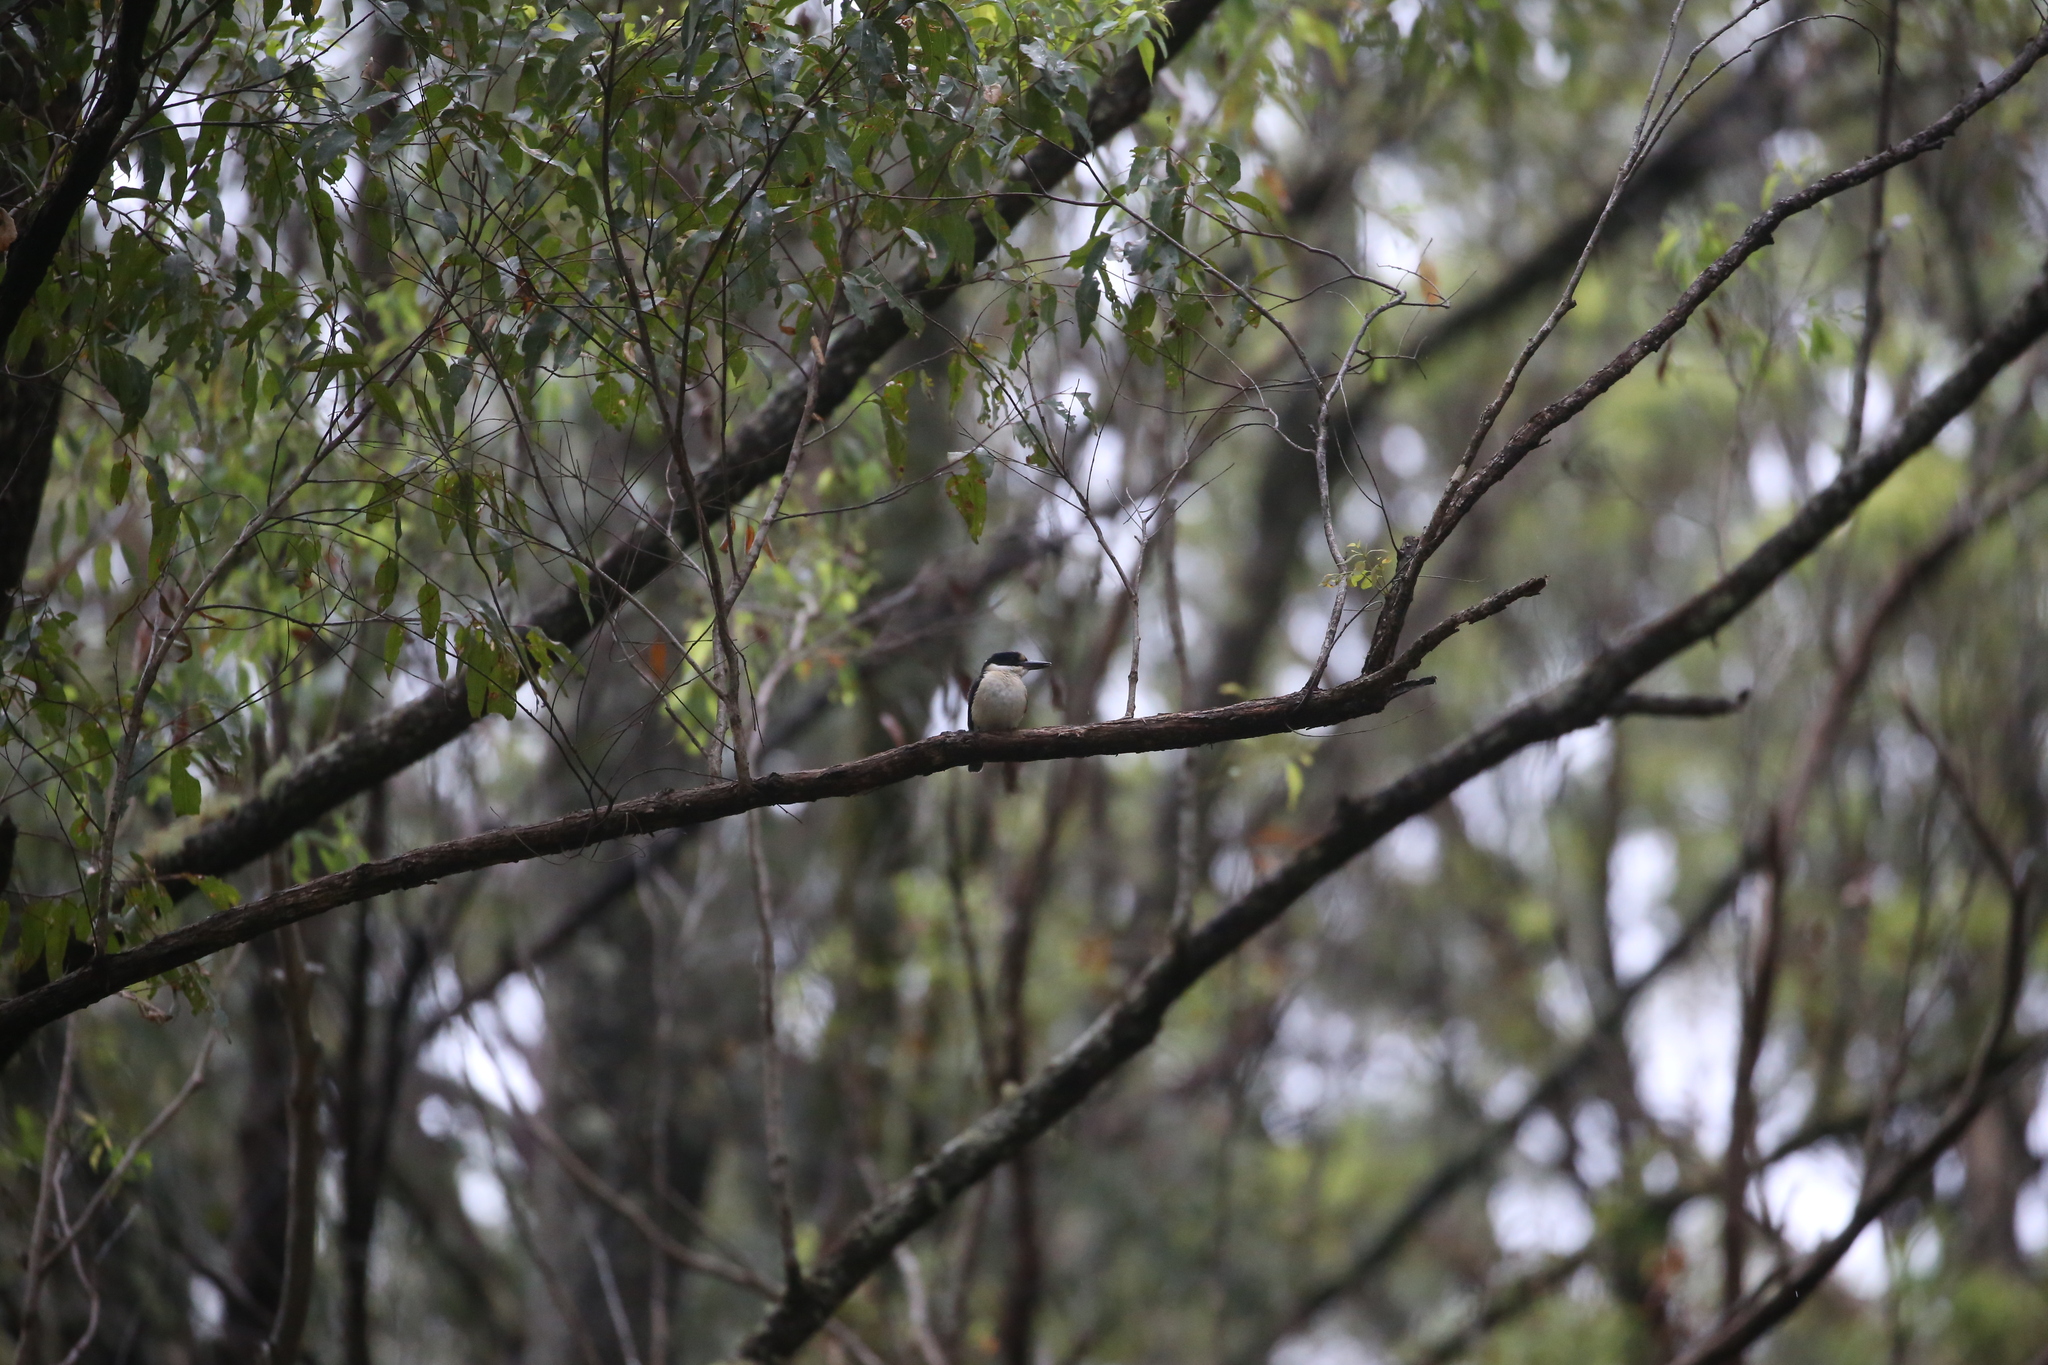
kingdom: Animalia
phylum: Chordata
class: Aves
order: Coraciiformes
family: Alcedinidae
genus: Todiramphus
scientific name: Todiramphus macleayii
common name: Forest kingfisher
